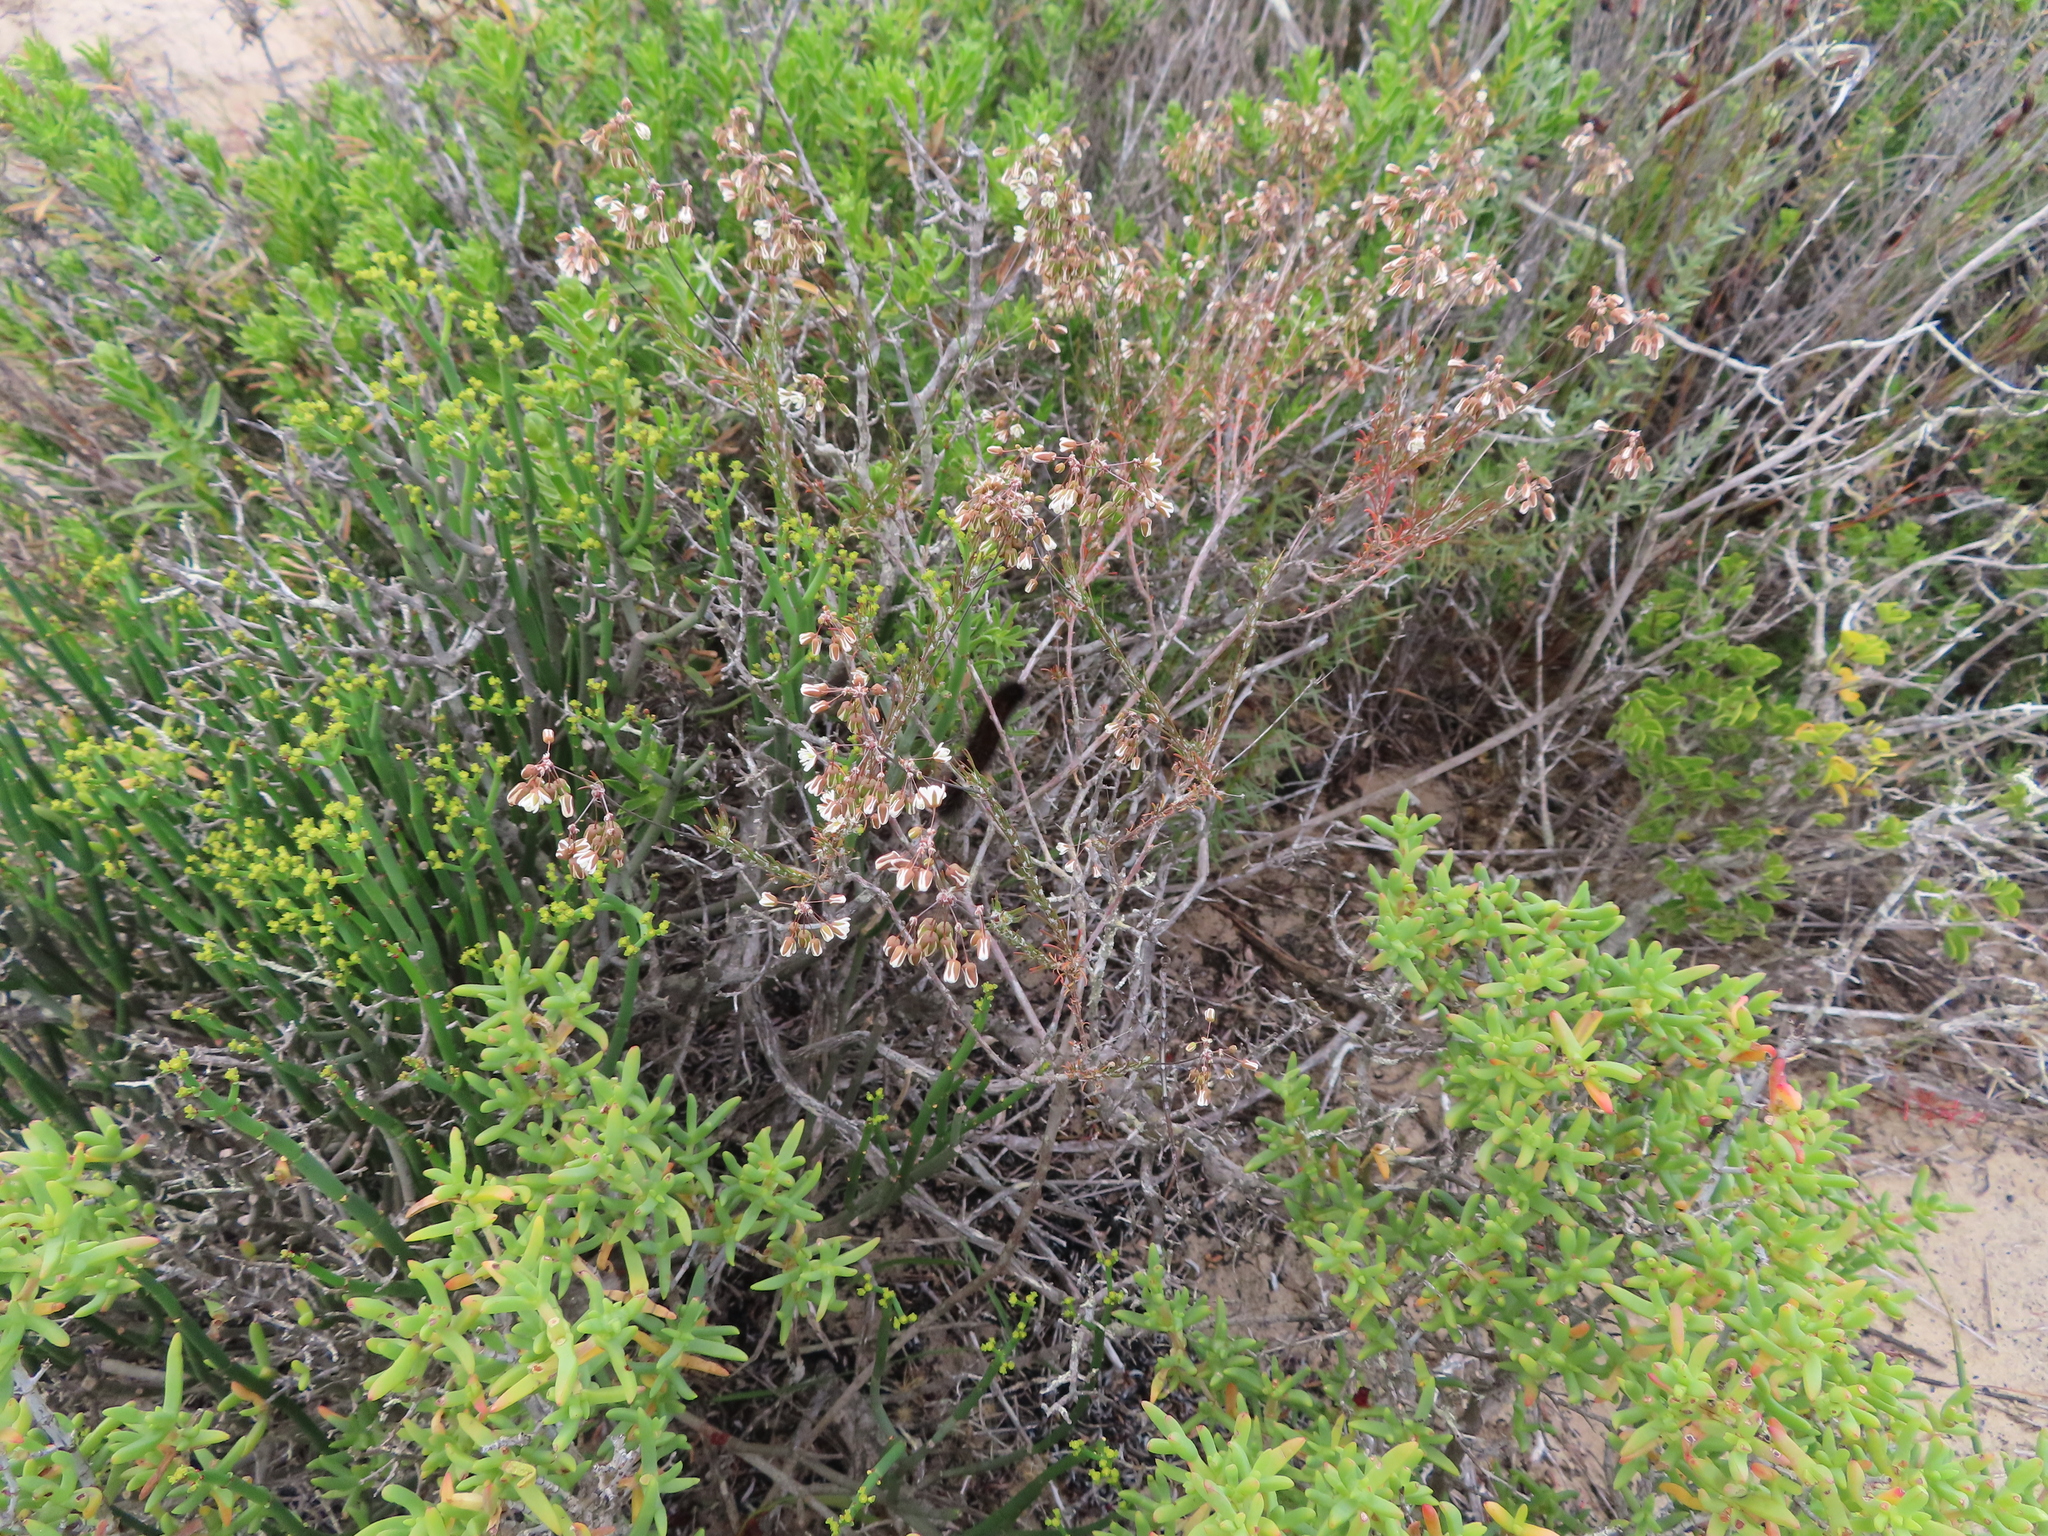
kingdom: Plantae
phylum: Tracheophyta
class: Magnoliopsida
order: Caryophyllales
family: Molluginaceae
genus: Pharnaceum
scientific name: Pharnaceum lanatum
